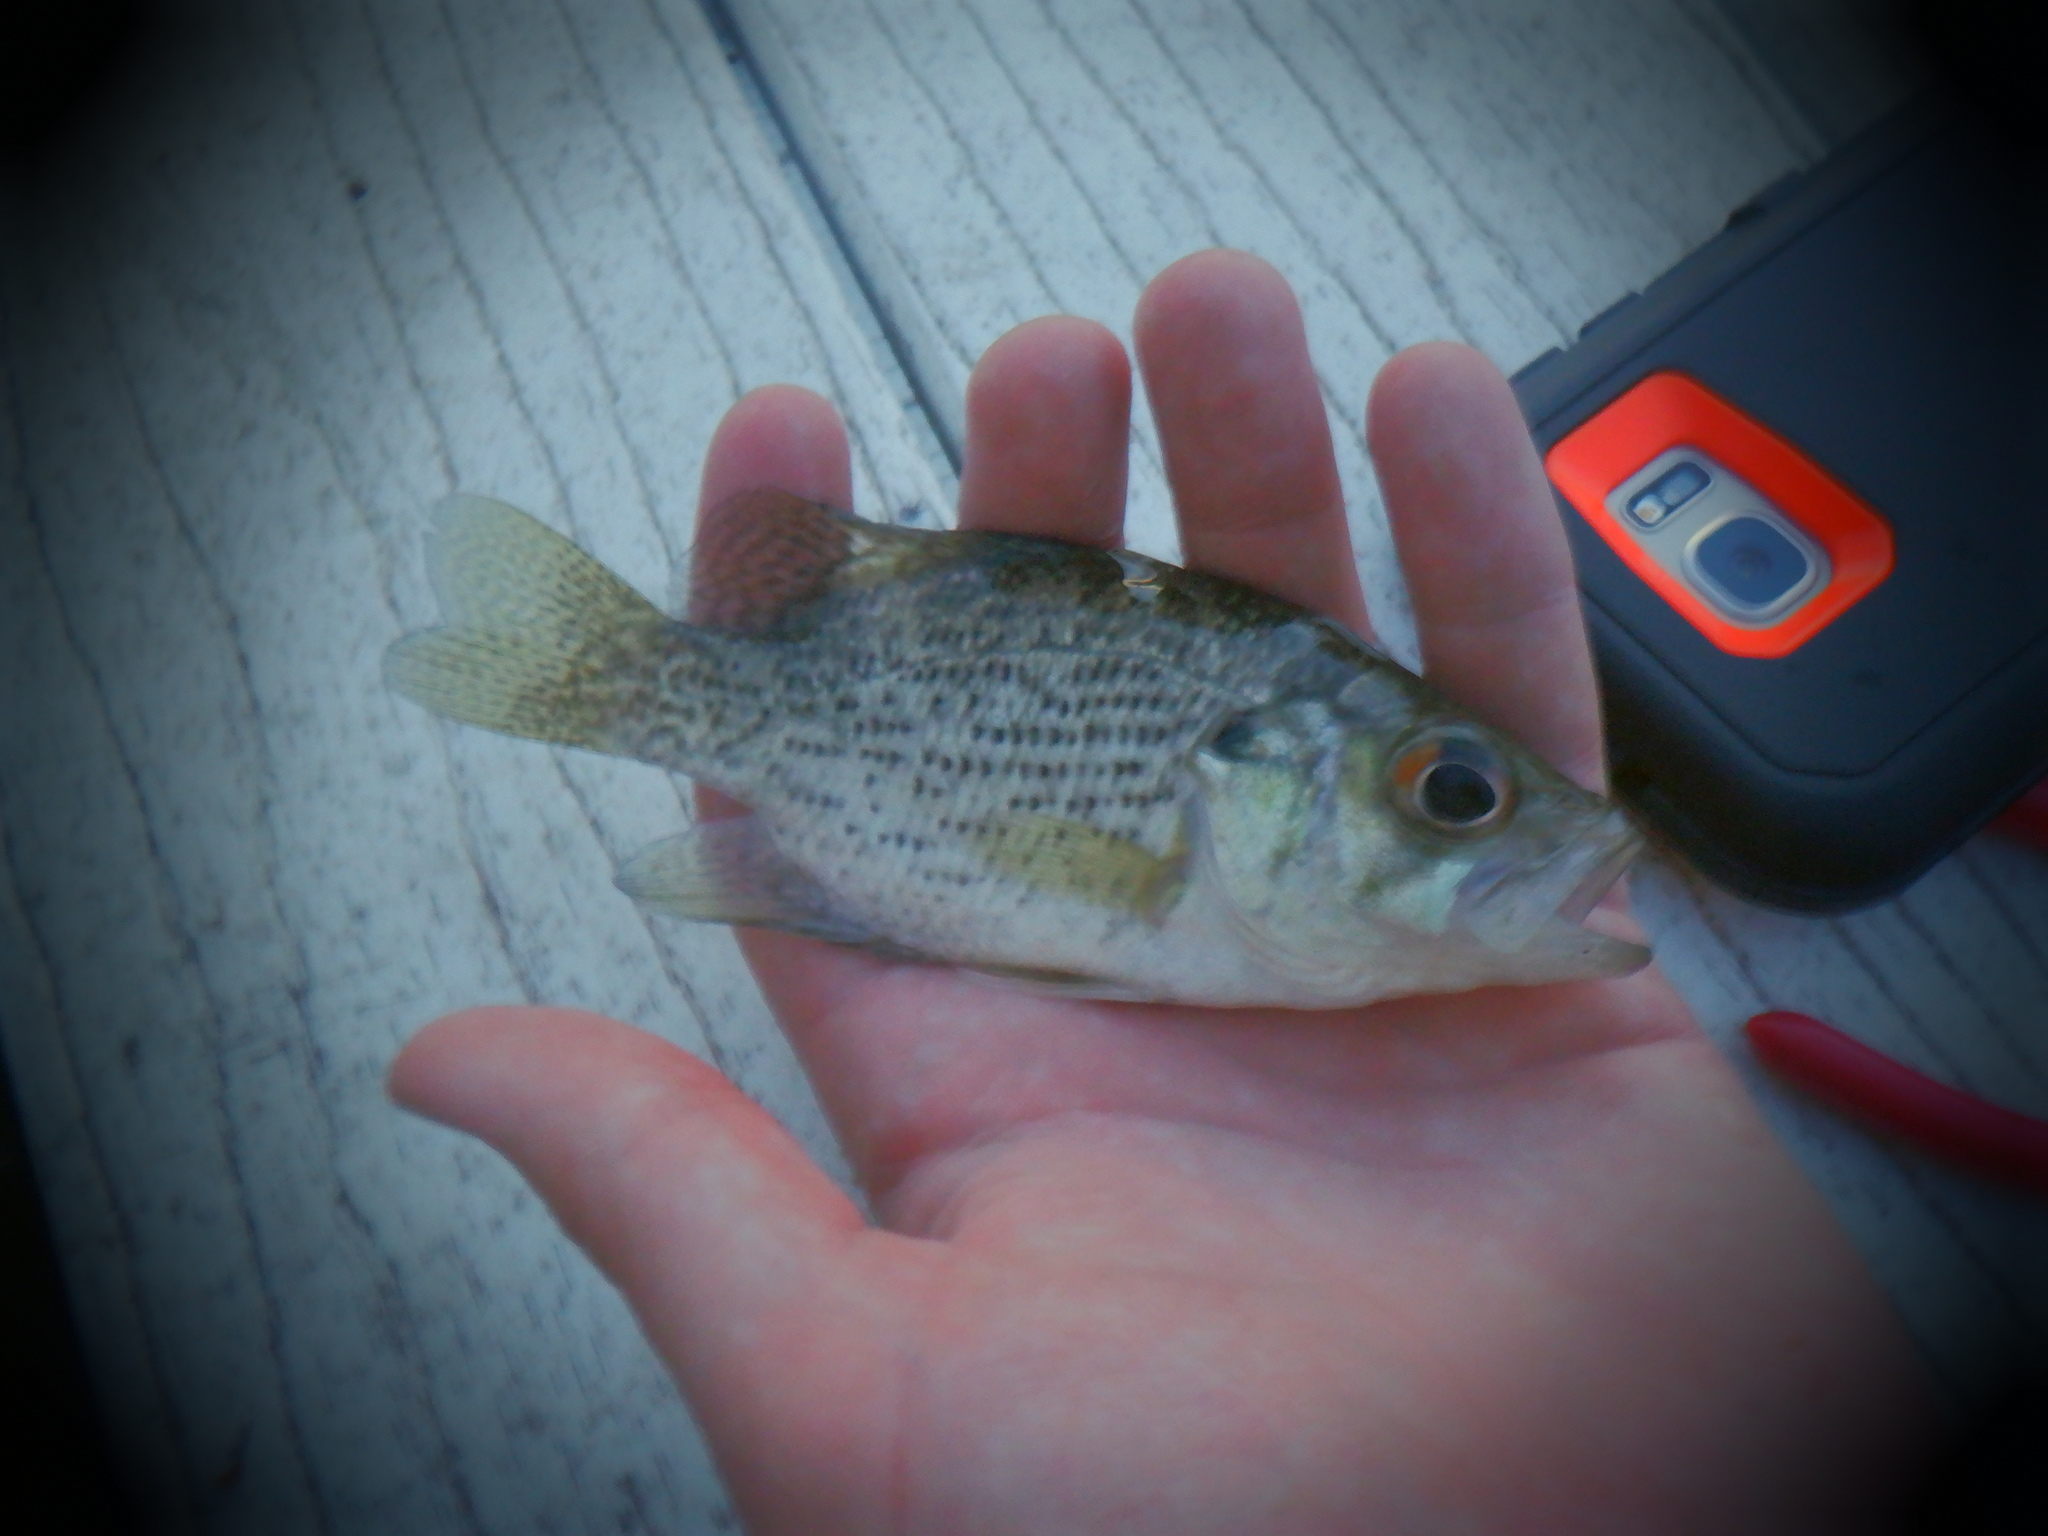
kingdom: Animalia
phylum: Chordata
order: Perciformes
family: Centrarchidae
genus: Ambloplites
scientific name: Ambloplites rupestris
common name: Rock bass
